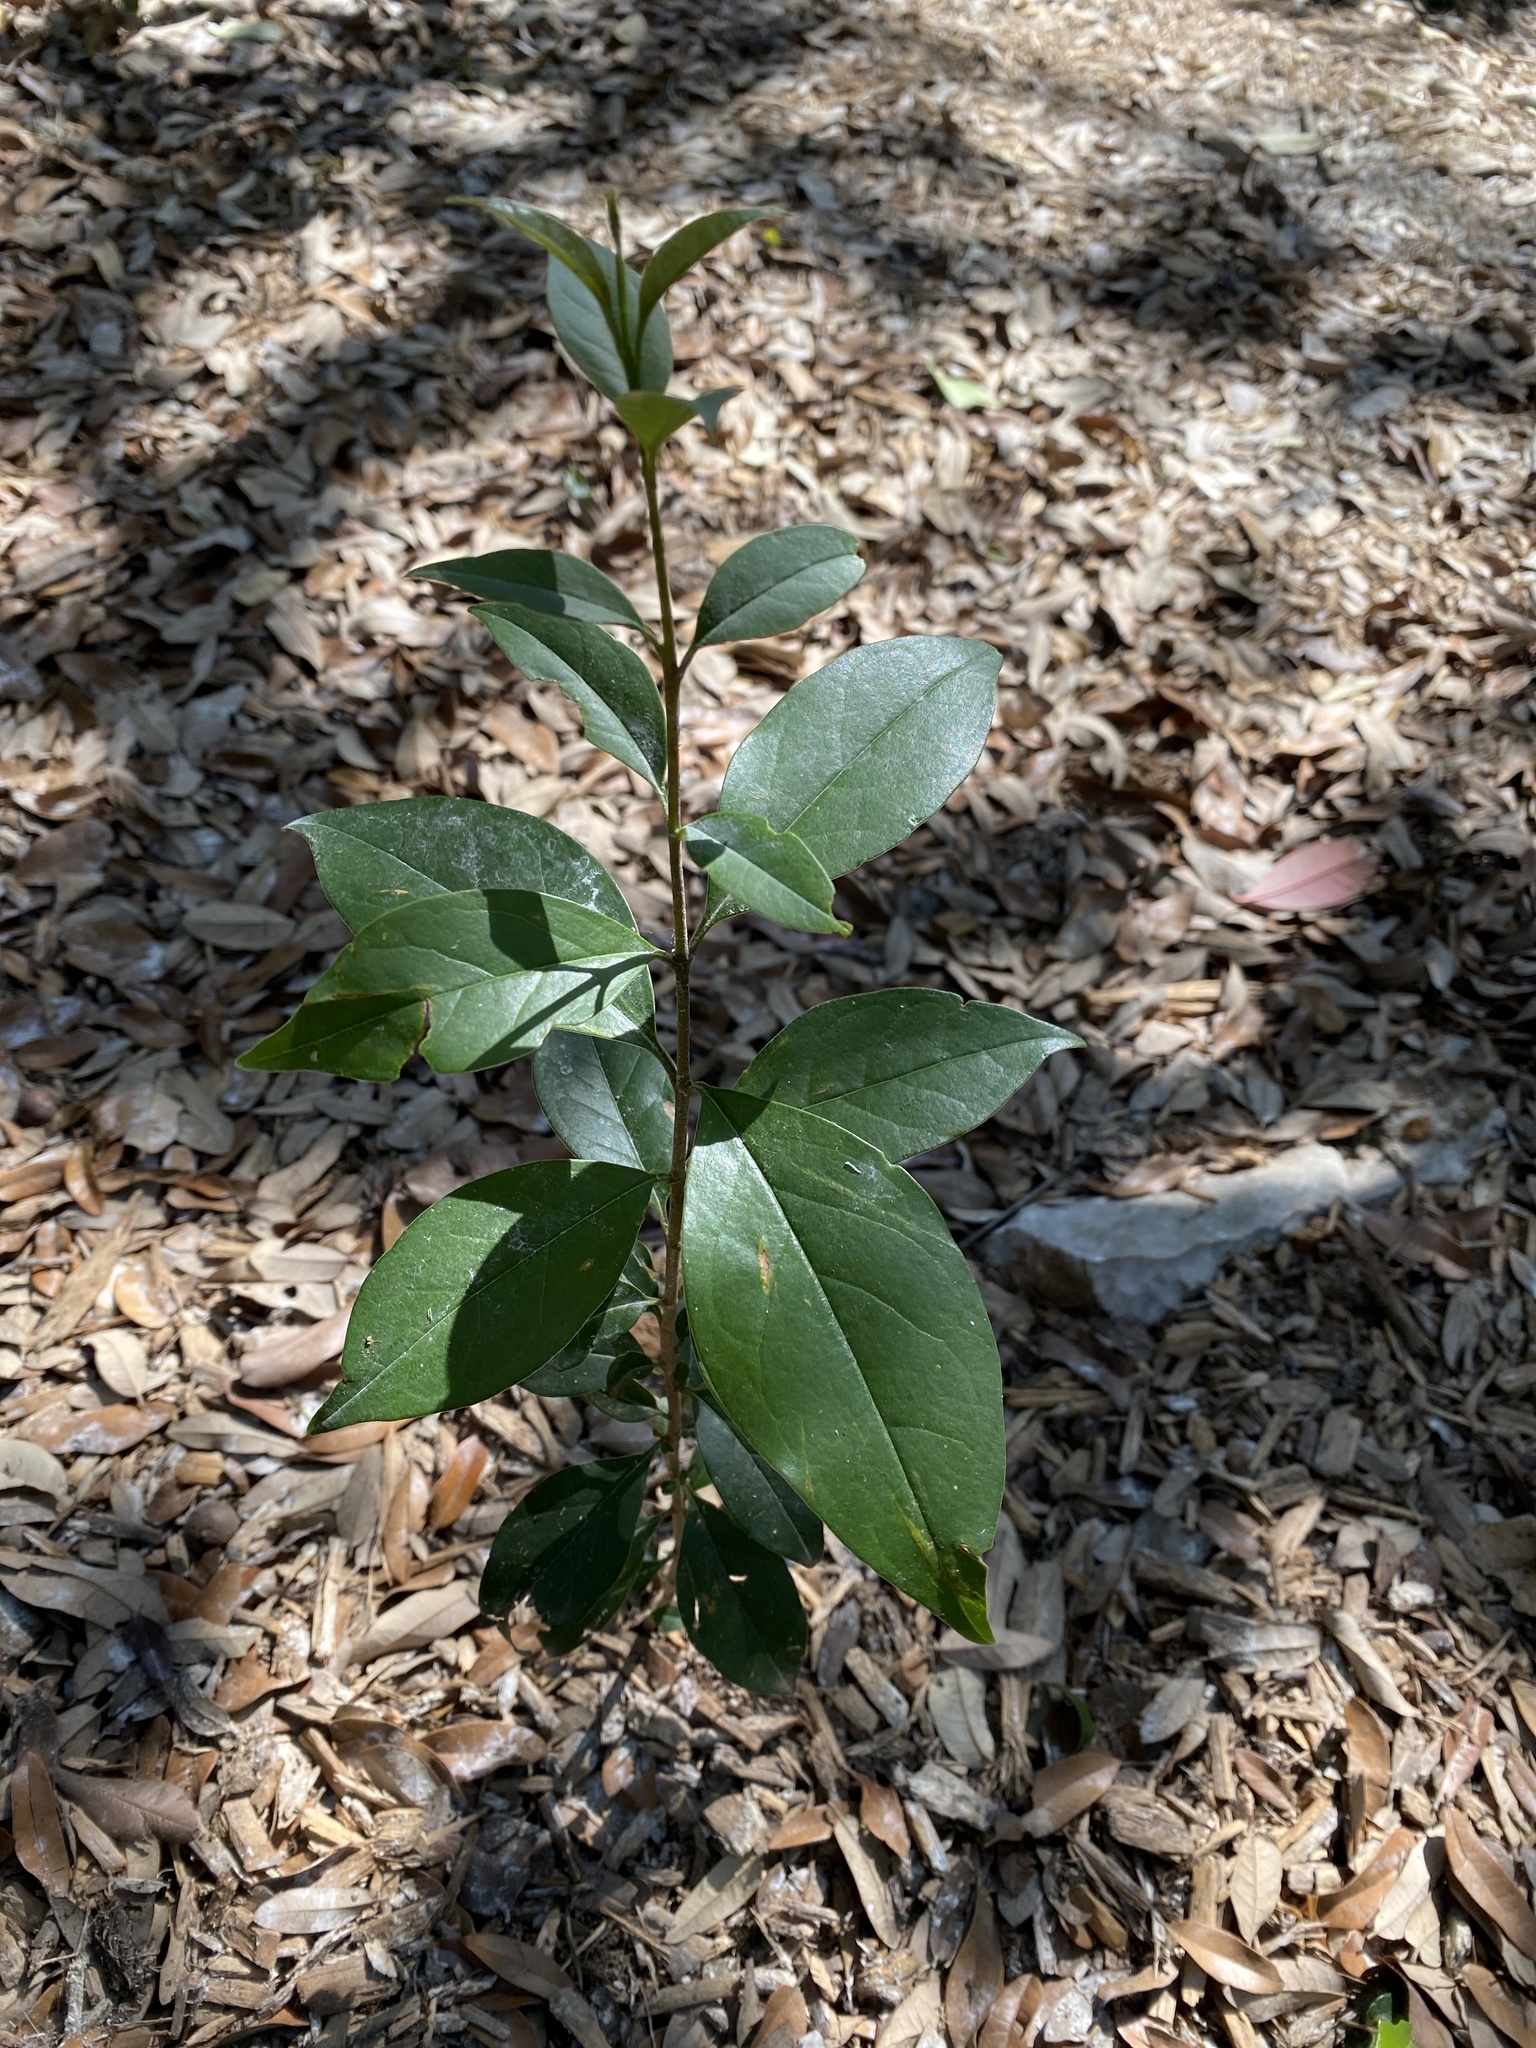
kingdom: Plantae
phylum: Tracheophyta
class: Magnoliopsida
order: Lamiales
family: Oleaceae
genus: Ligustrum
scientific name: Ligustrum lucidum
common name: Glossy privet
